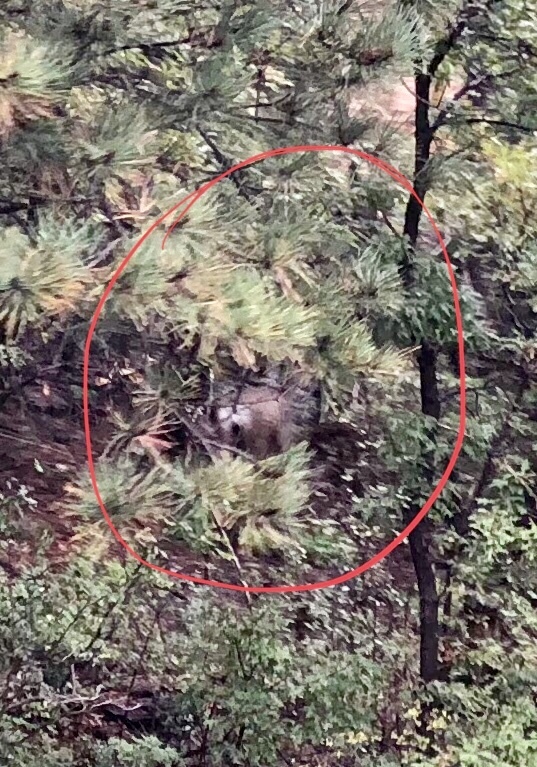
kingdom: Animalia
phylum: Chordata
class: Mammalia
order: Artiodactyla
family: Cervidae
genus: Odocoileus
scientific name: Odocoileus hemionus
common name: Mule deer
